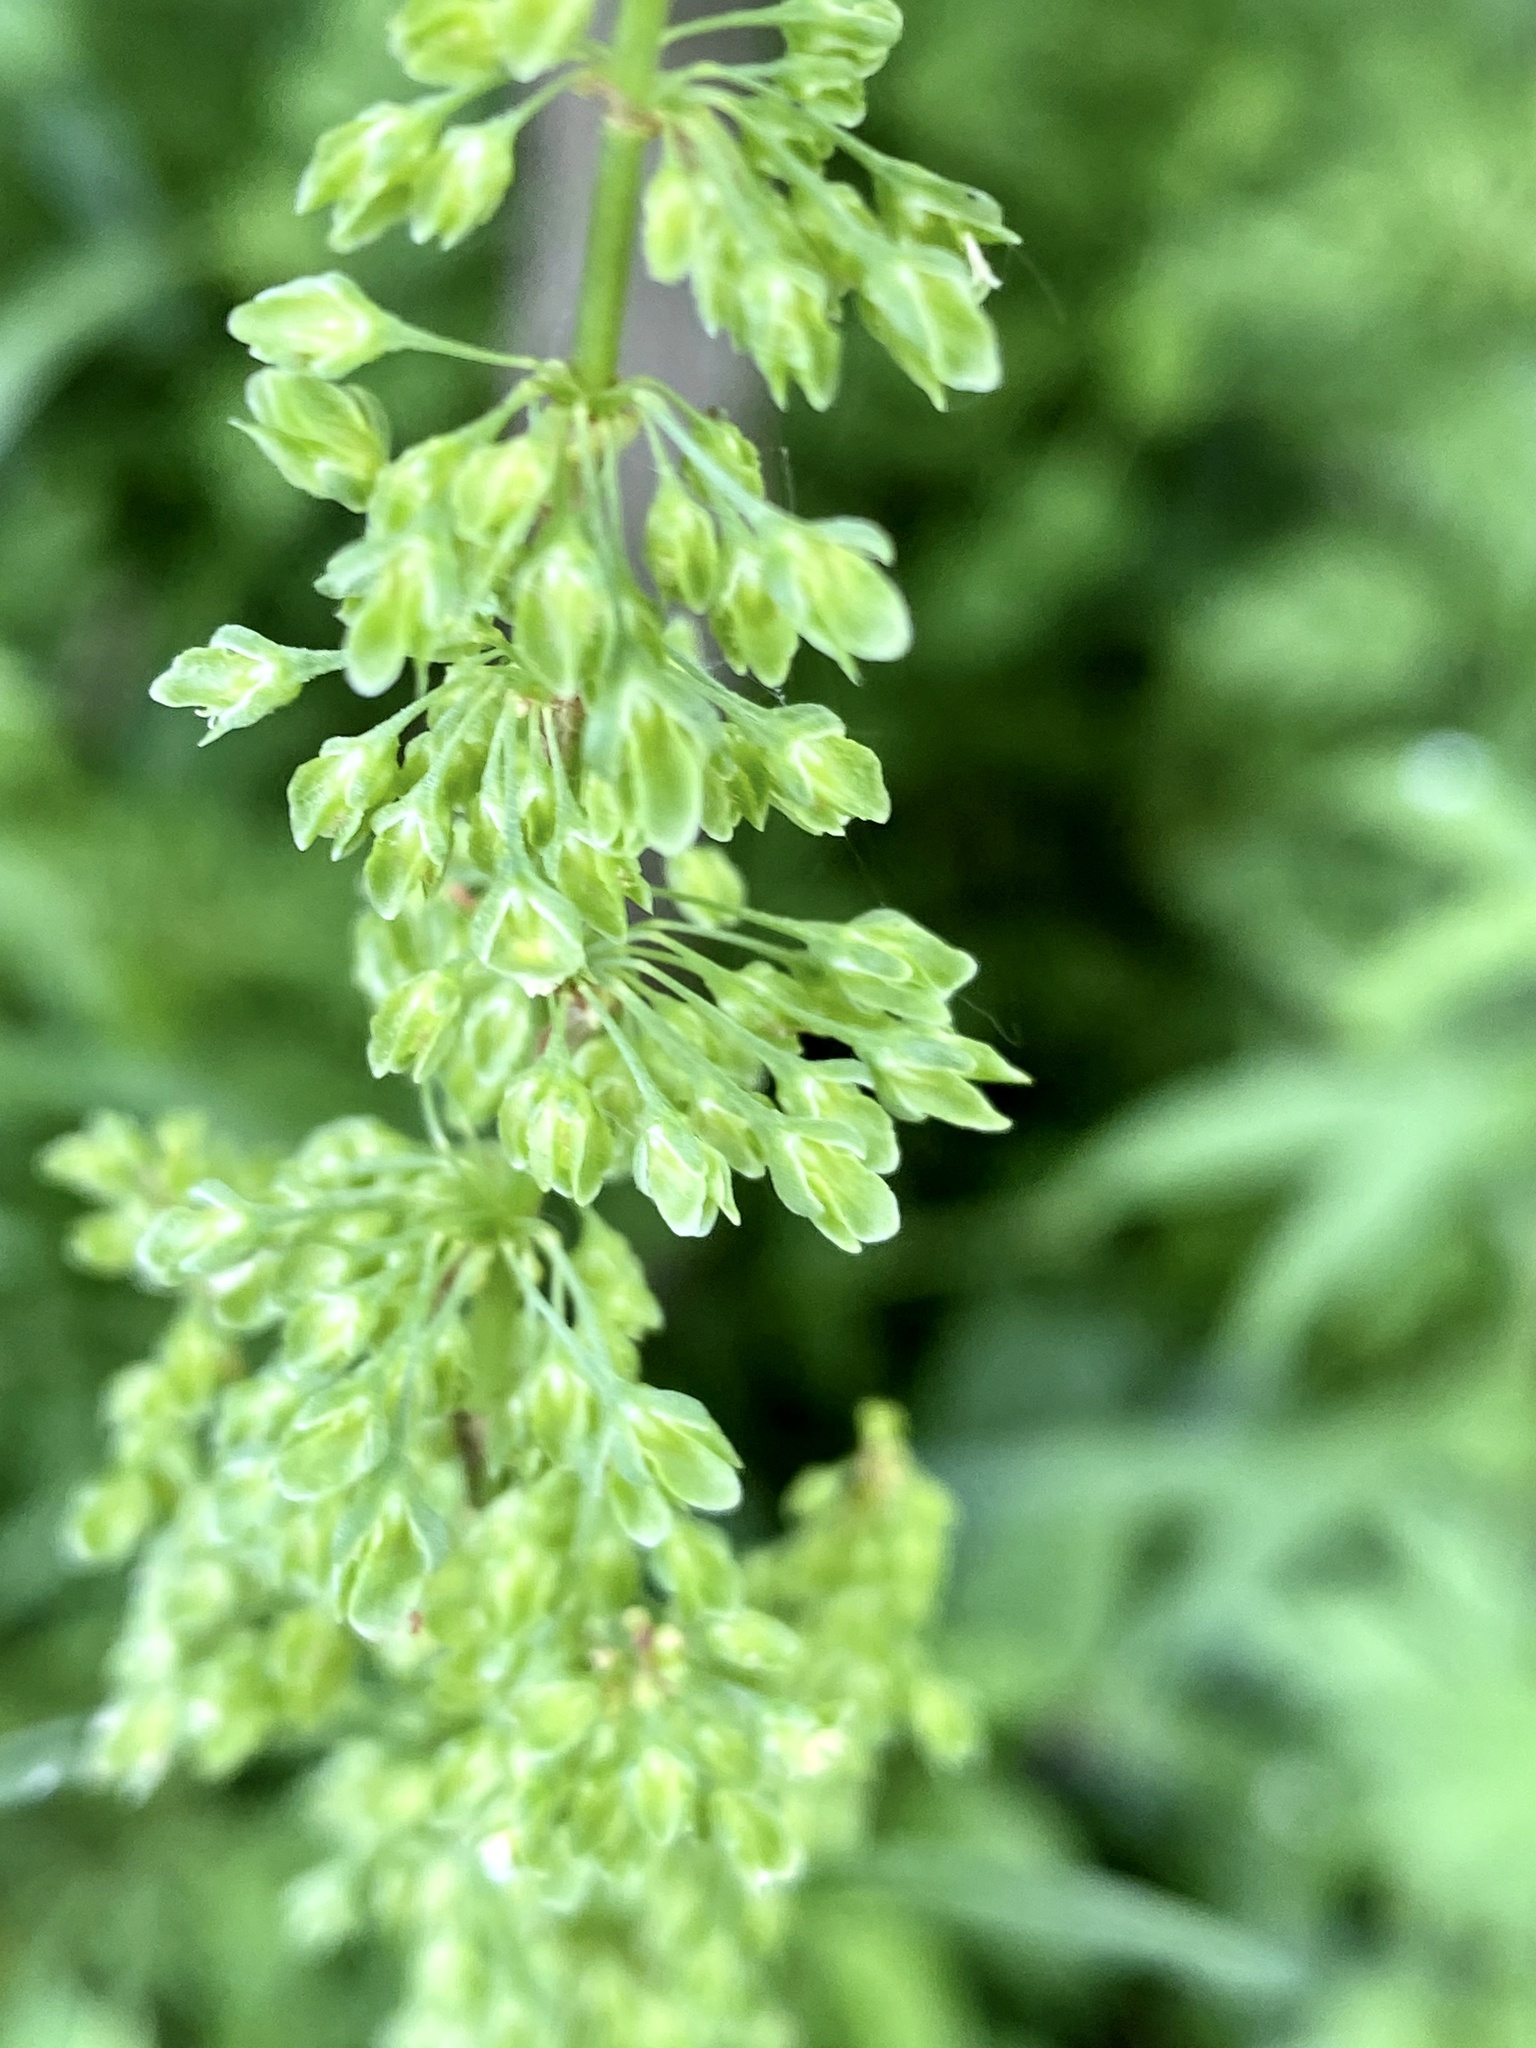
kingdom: Plantae
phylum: Tracheophyta
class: Magnoliopsida
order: Caryophyllales
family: Polygonaceae
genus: Rumex
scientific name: Rumex crispus
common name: Curled dock
